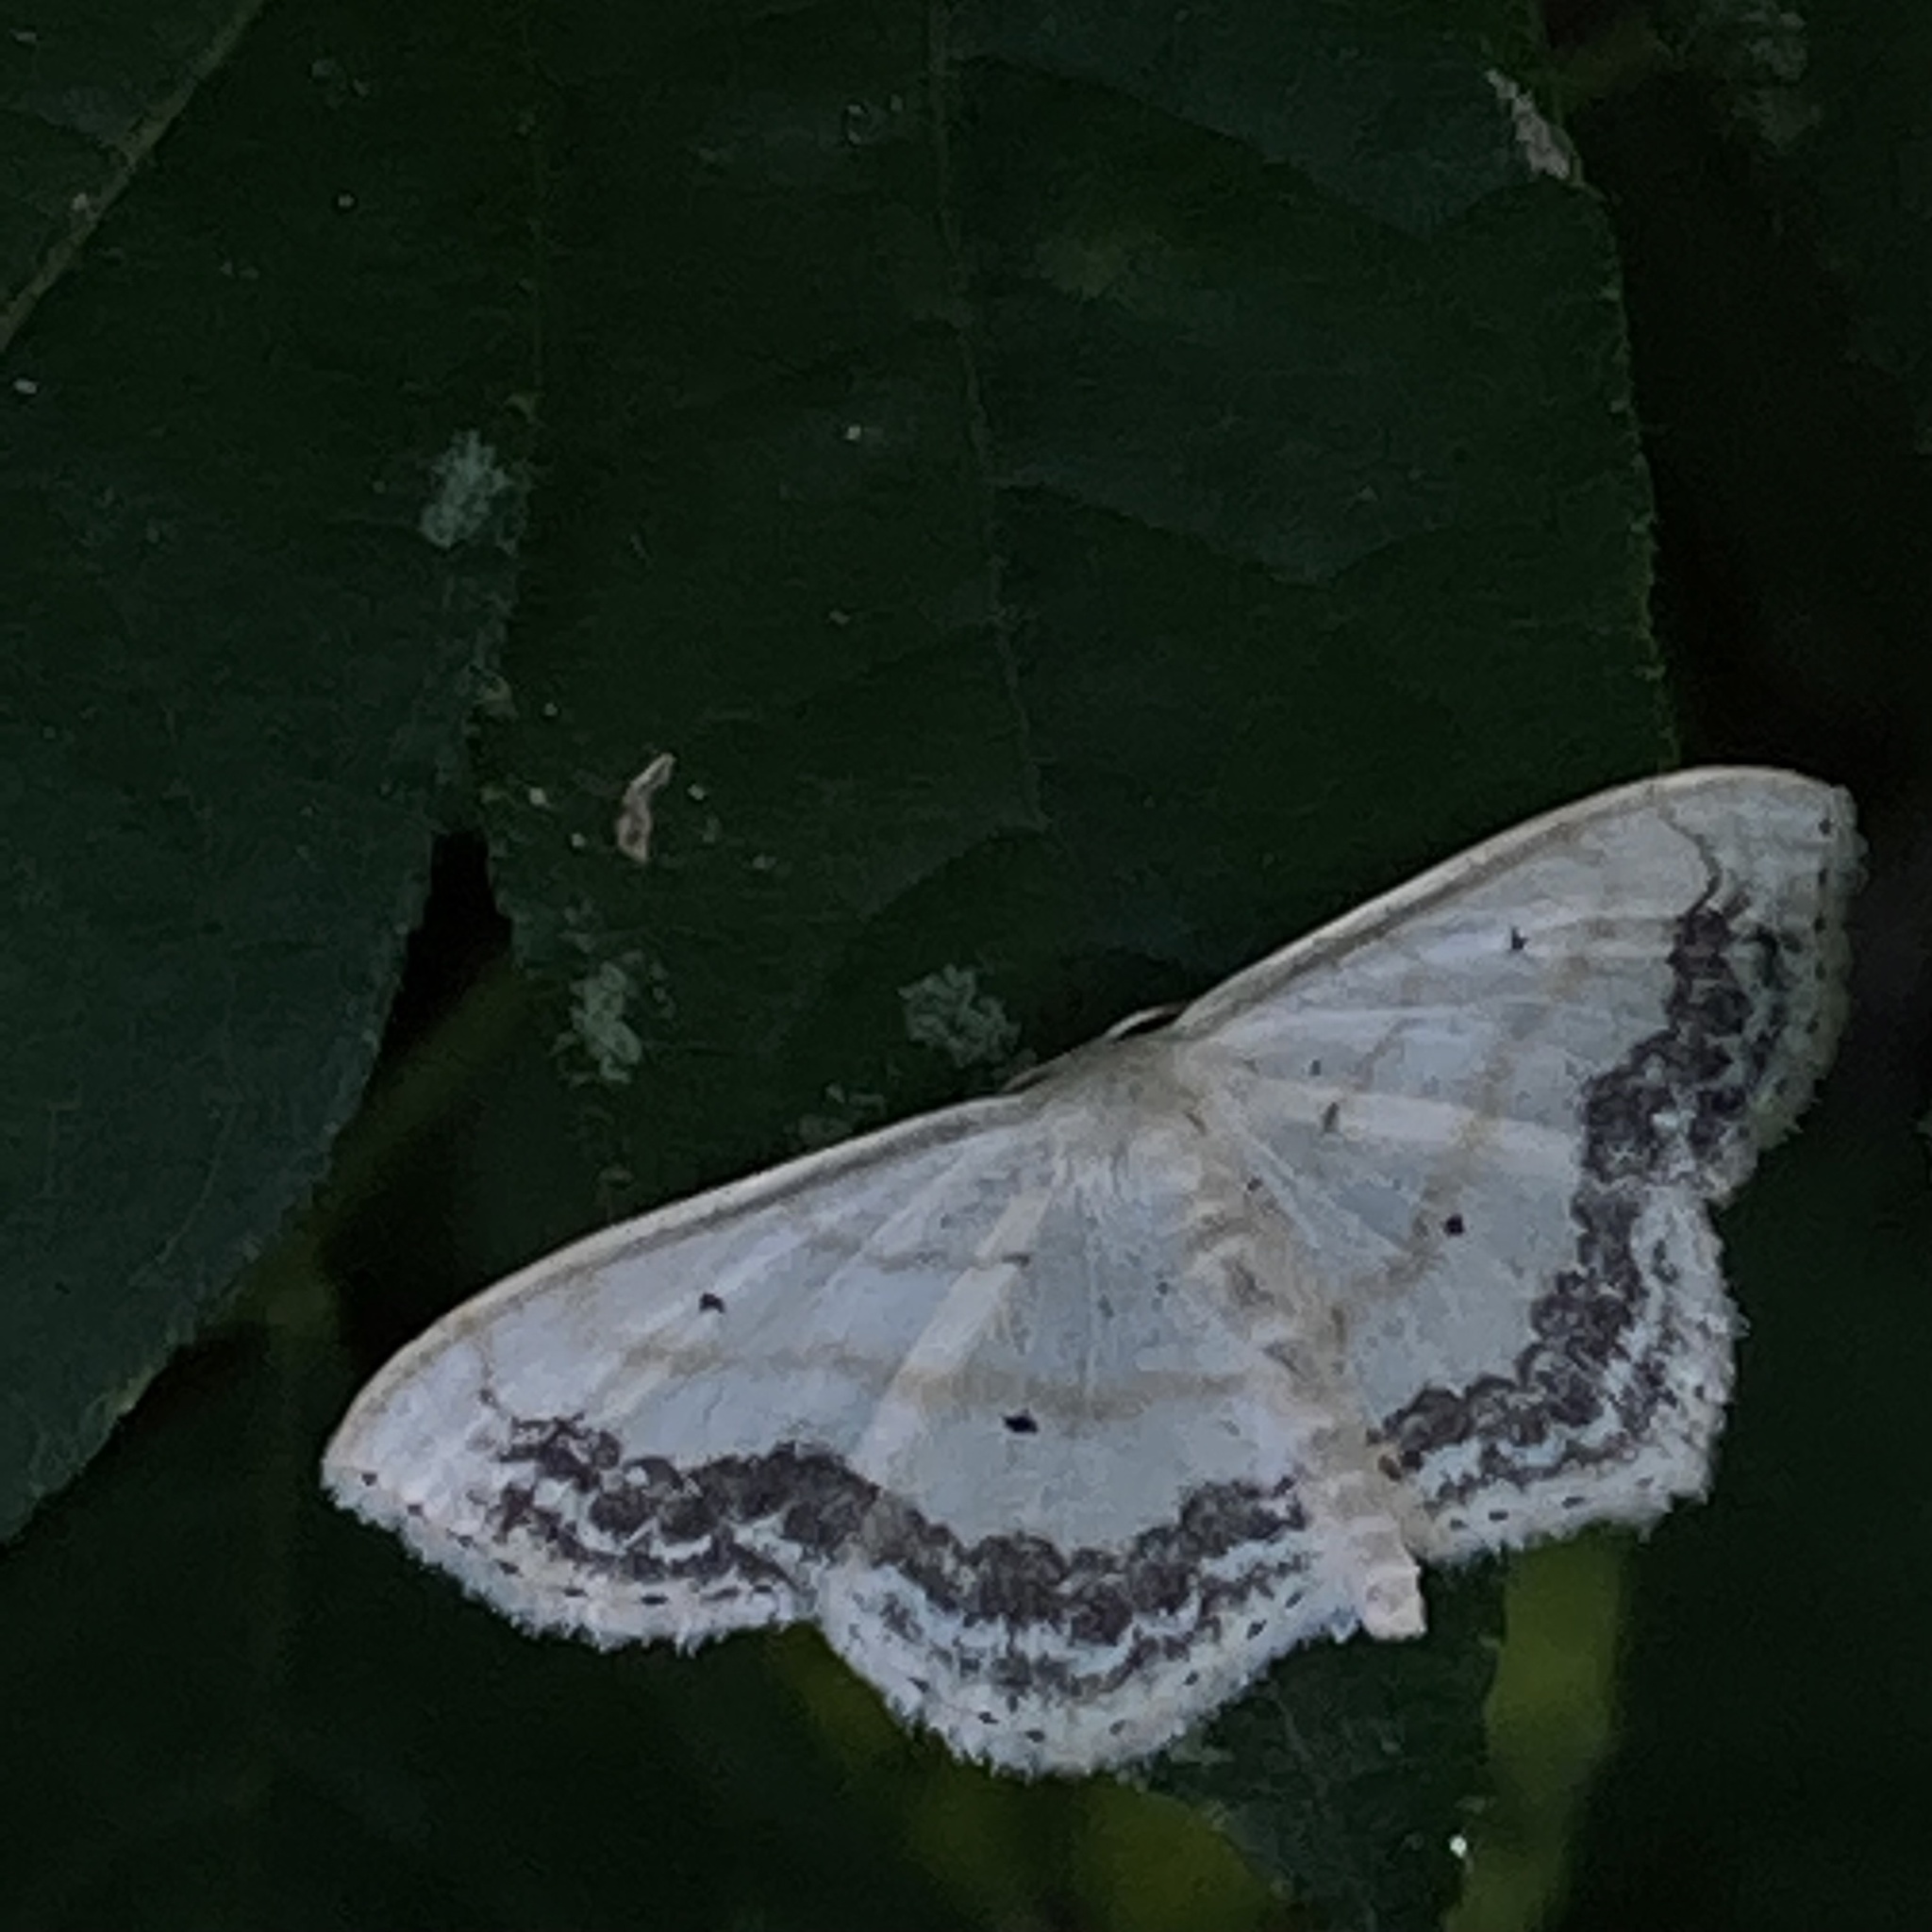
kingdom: Animalia
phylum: Arthropoda
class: Insecta
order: Lepidoptera
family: Geometridae
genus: Scopula
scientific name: Scopula limboundata
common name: Large lace border
